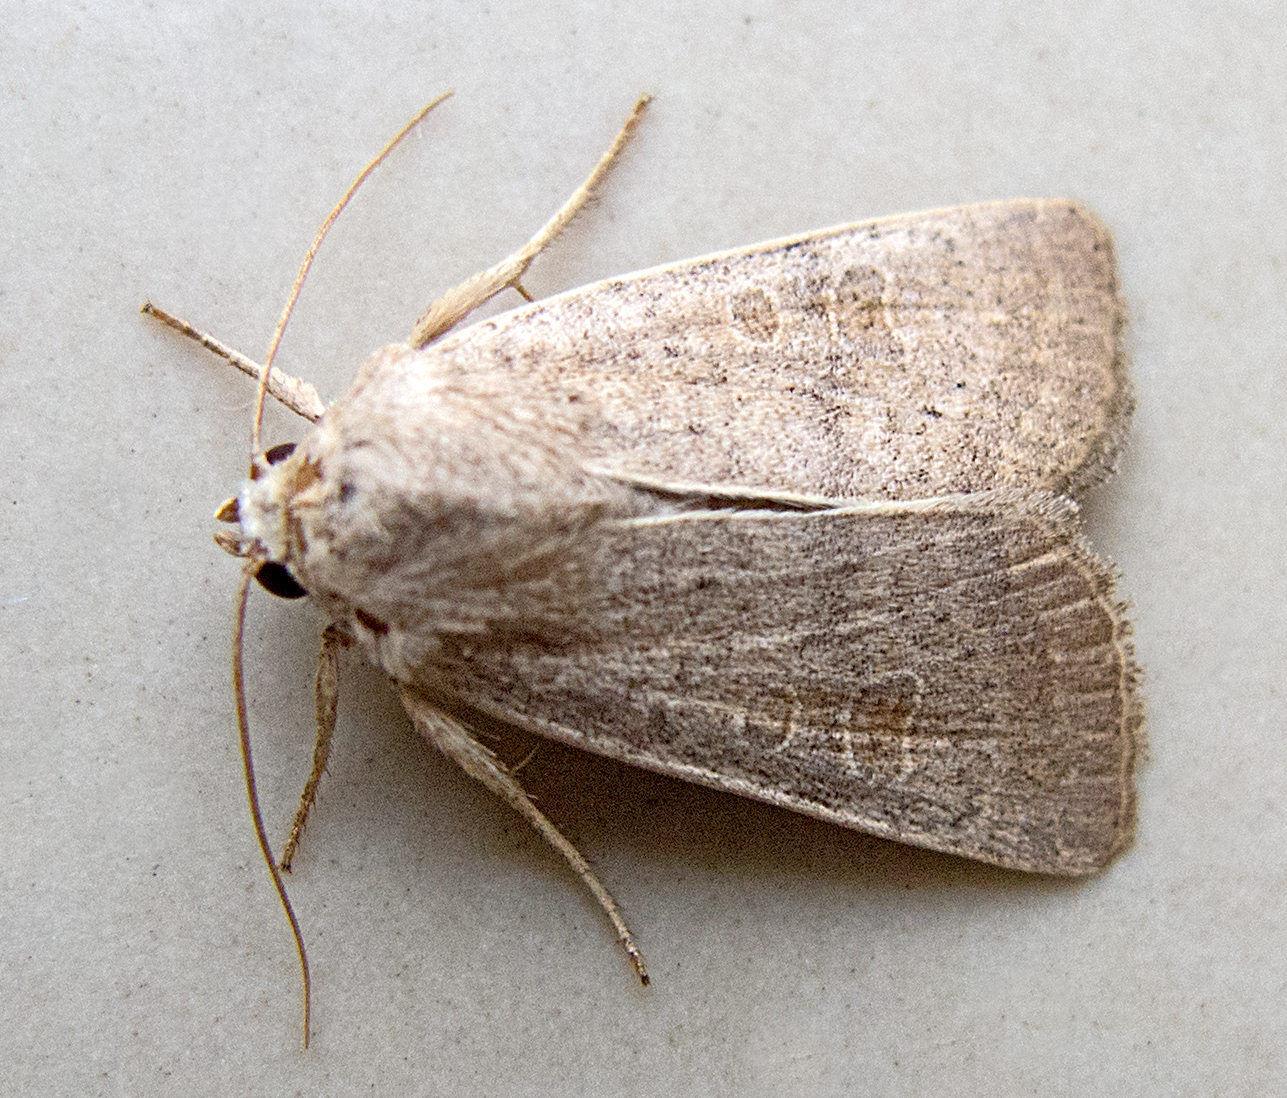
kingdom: Animalia
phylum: Arthropoda
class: Insecta
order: Lepidoptera
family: Noctuidae
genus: Hoplodrina
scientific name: Hoplodrina ambigua
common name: Vine's rustic
